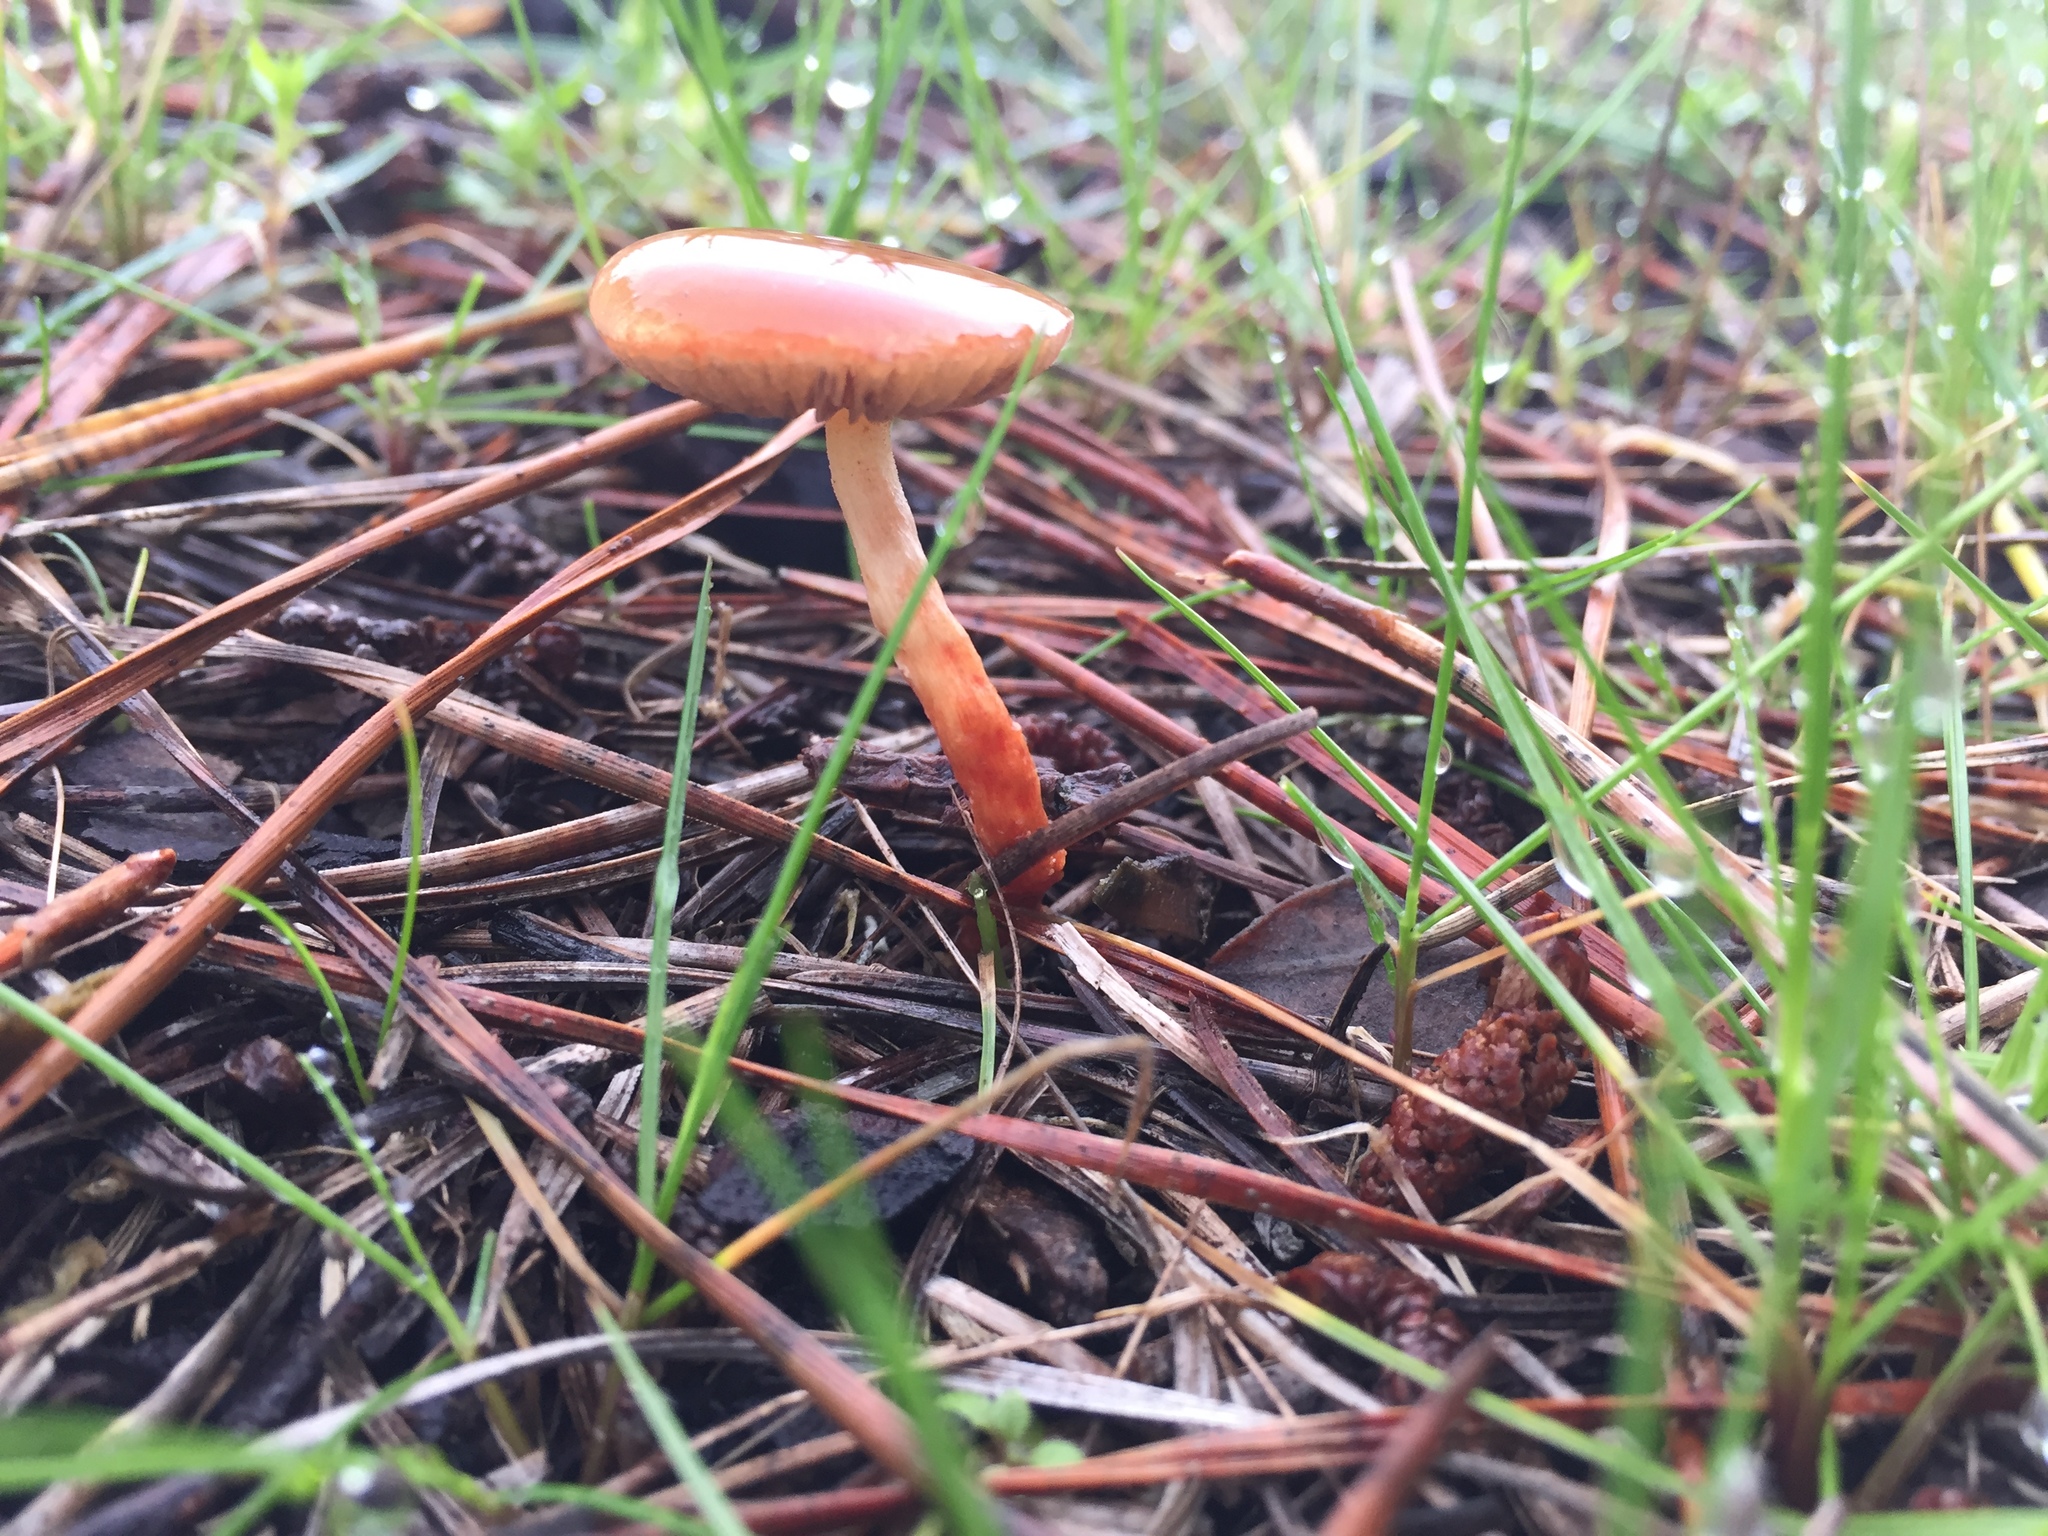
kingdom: Fungi
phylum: Basidiomycota
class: Agaricomycetes
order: Agaricales
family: Strophariaceae
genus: Leratiomyces
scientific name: Leratiomyces ceres
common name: Redlead roundhead
